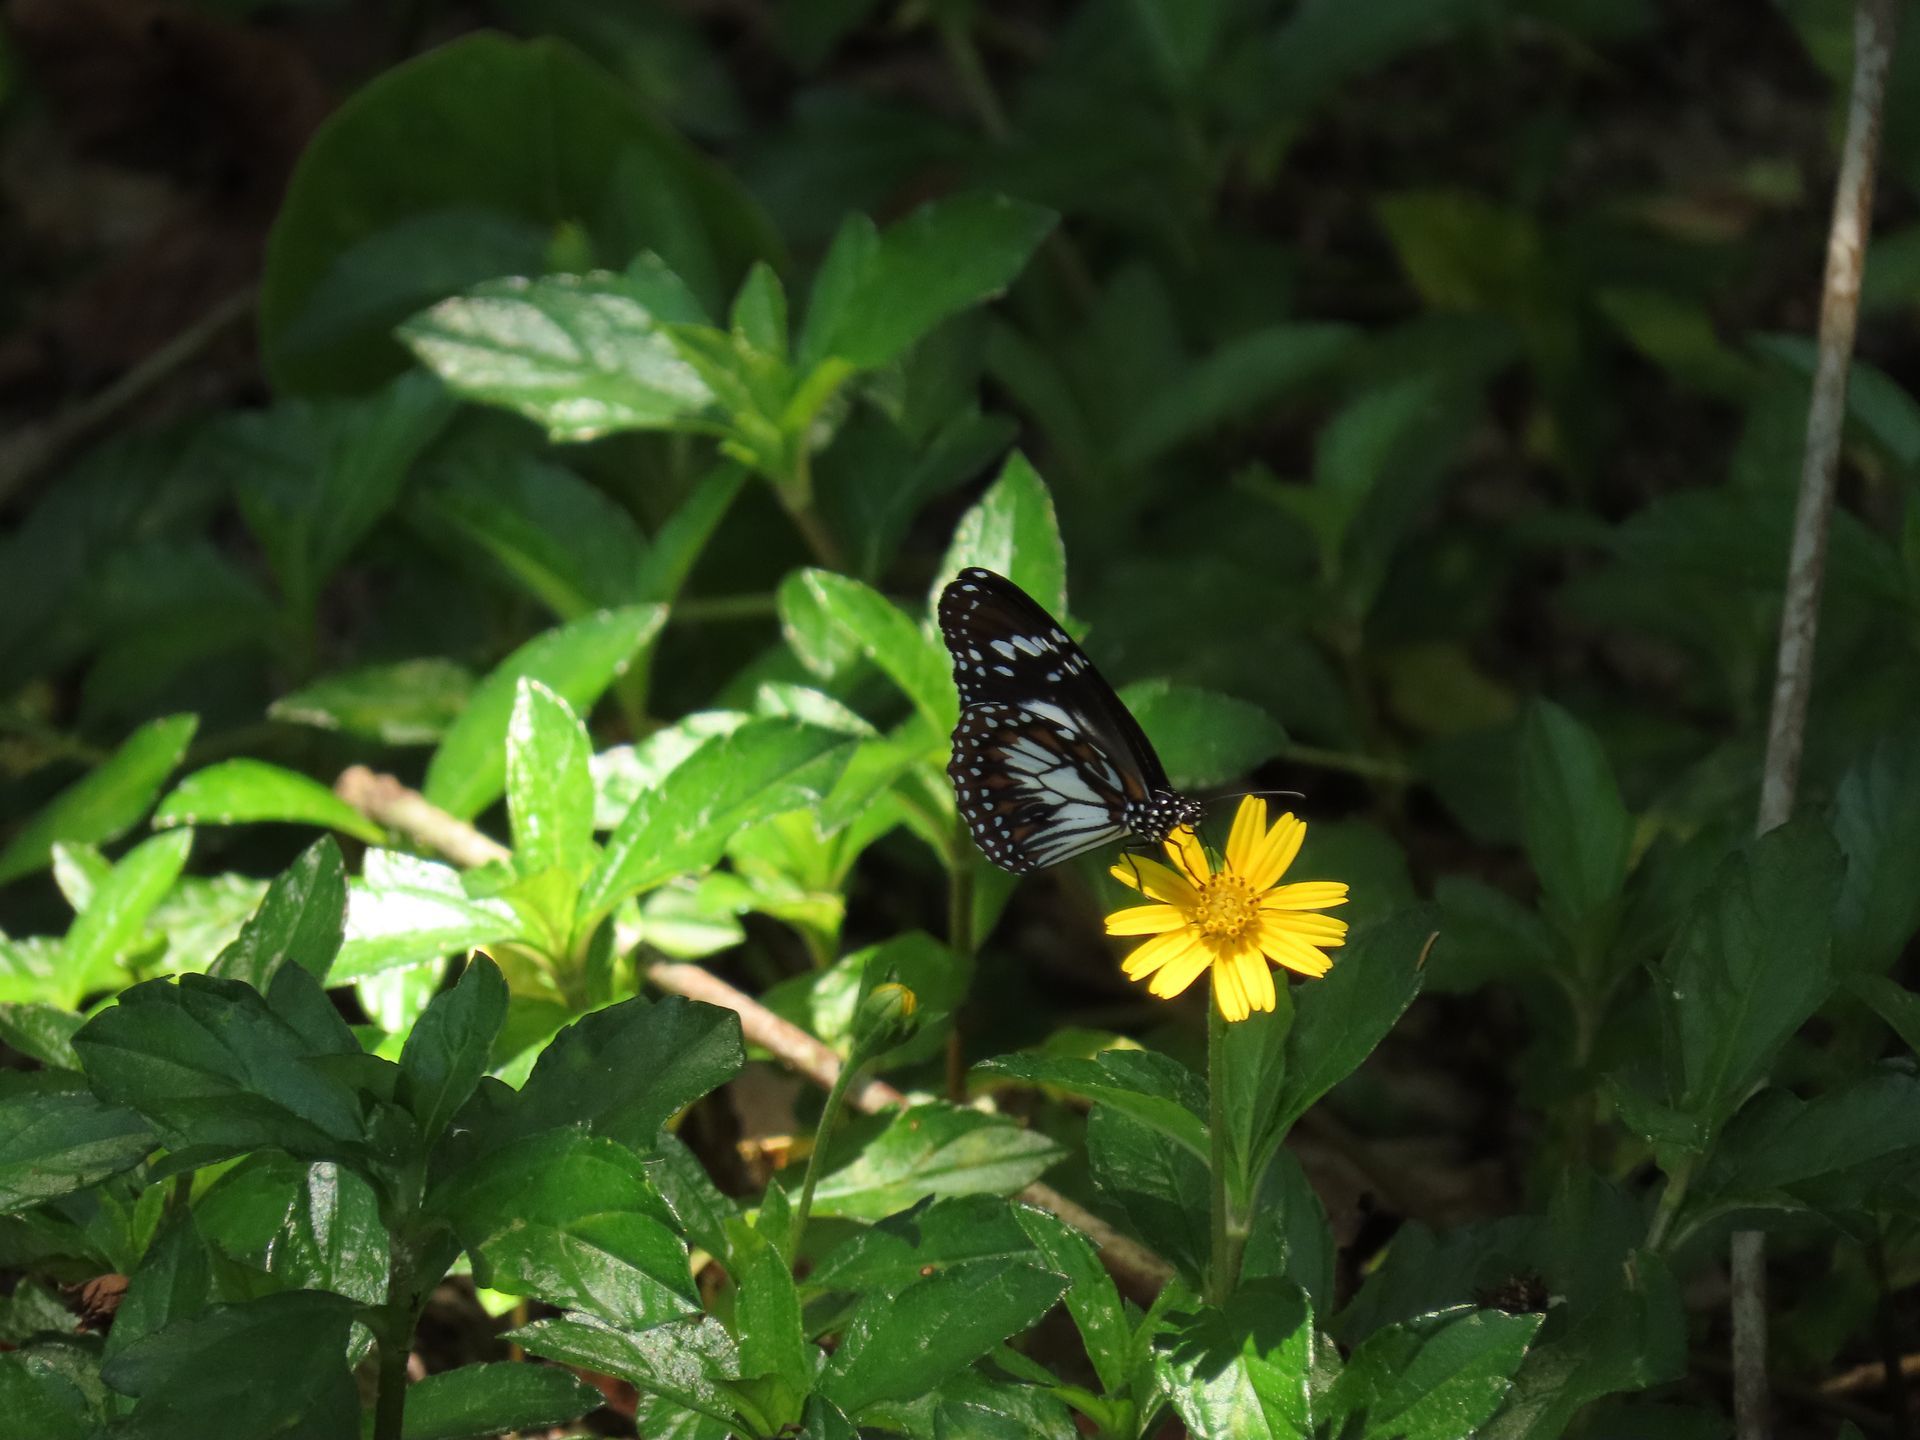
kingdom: Animalia
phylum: Arthropoda
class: Insecta
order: Lepidoptera
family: Nymphalidae
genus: Danaus
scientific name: Danaus affinis
